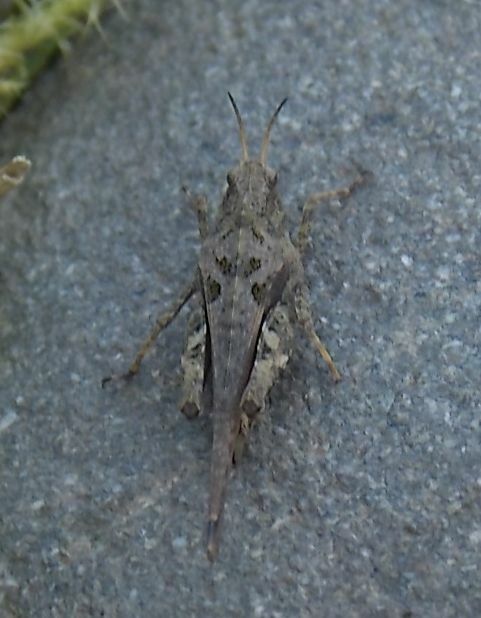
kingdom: Animalia
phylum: Arthropoda
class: Insecta
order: Orthoptera
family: Tetrigidae
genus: Tetrix
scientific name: Tetrix subulata
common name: Slender ground-hopper
